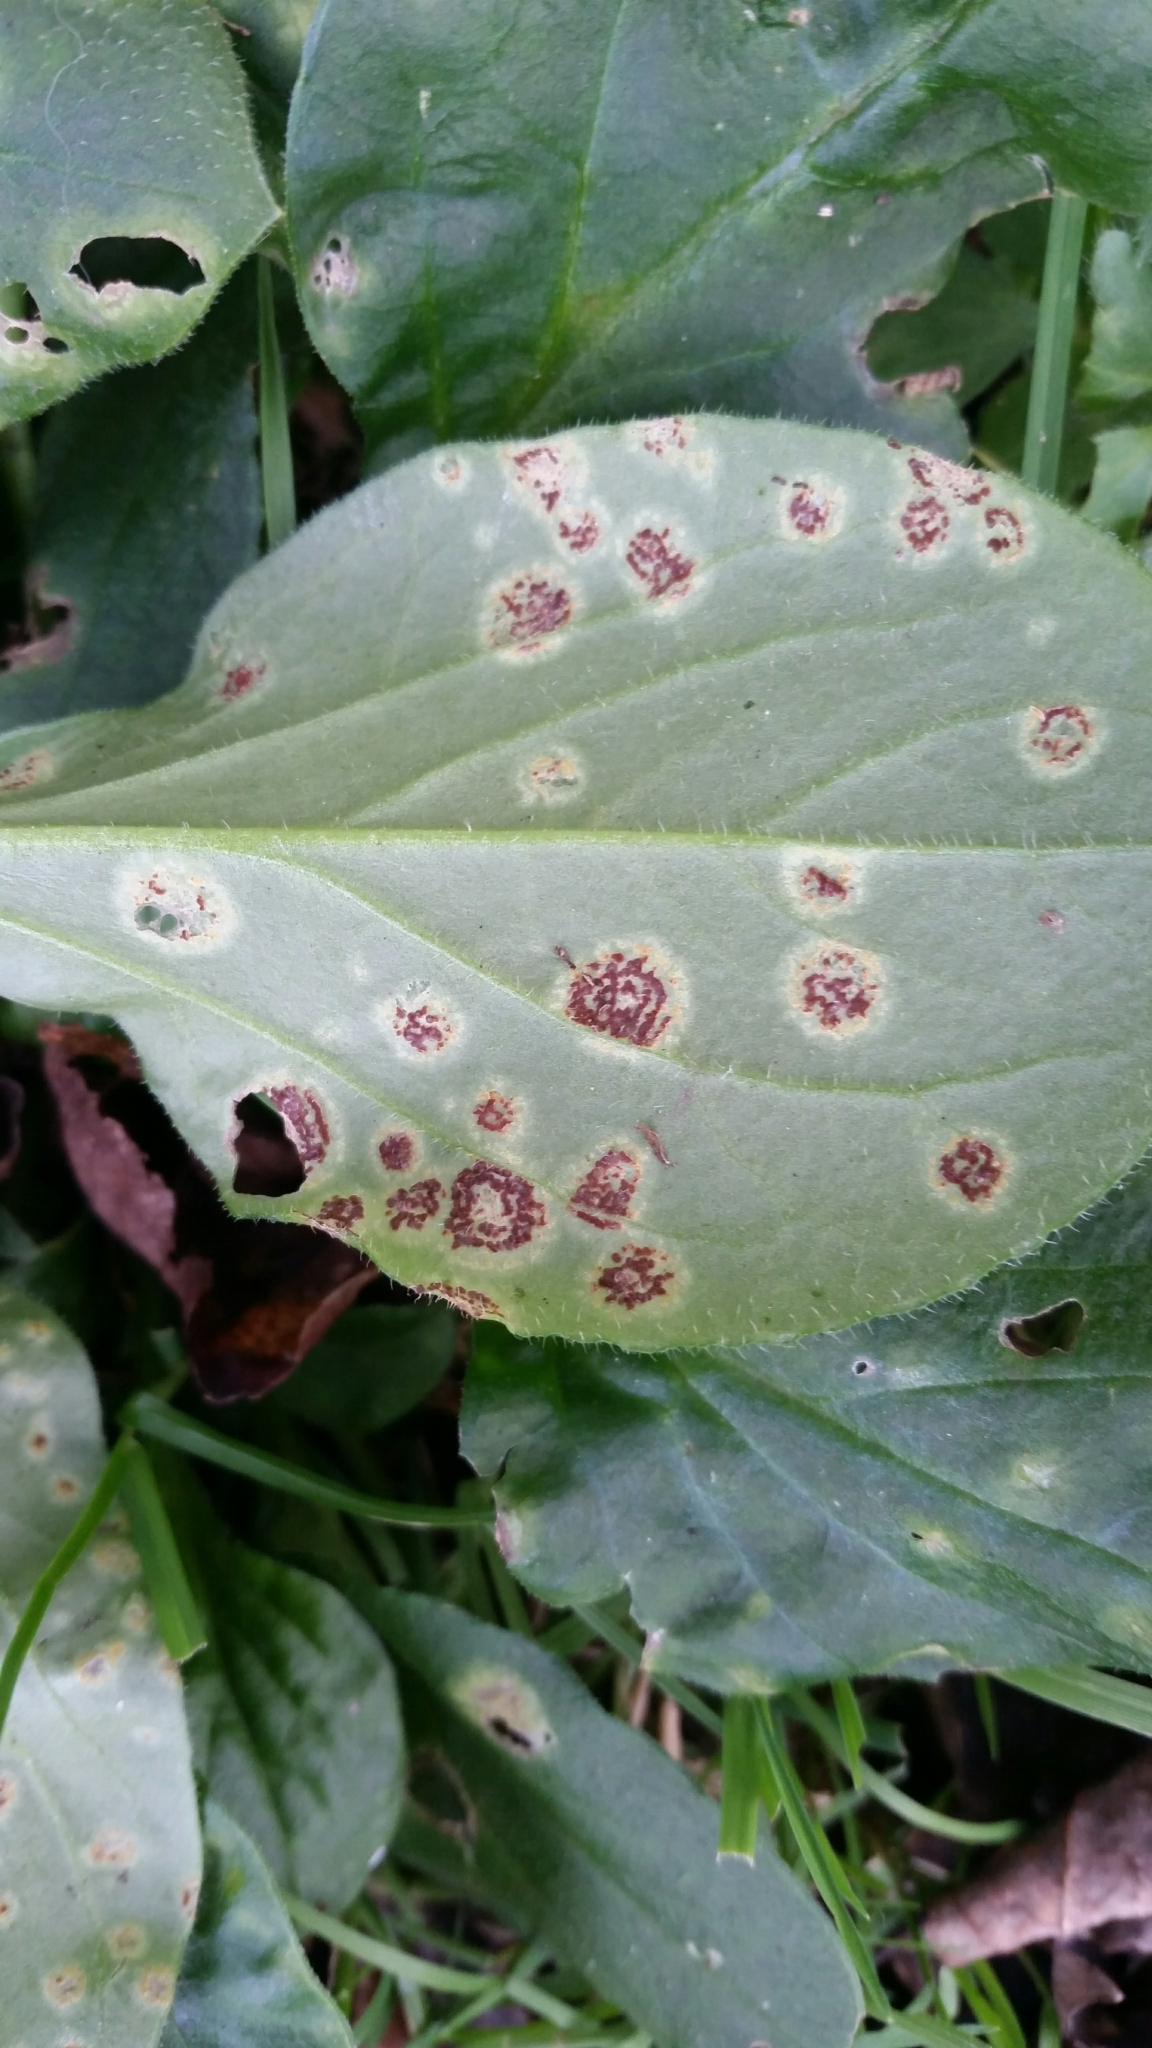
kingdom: Fungi
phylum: Basidiomycota
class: Pucciniomycetes
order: Pucciniales
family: Pucciniaceae
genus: Puccinia
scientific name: Puccinia arenariae
